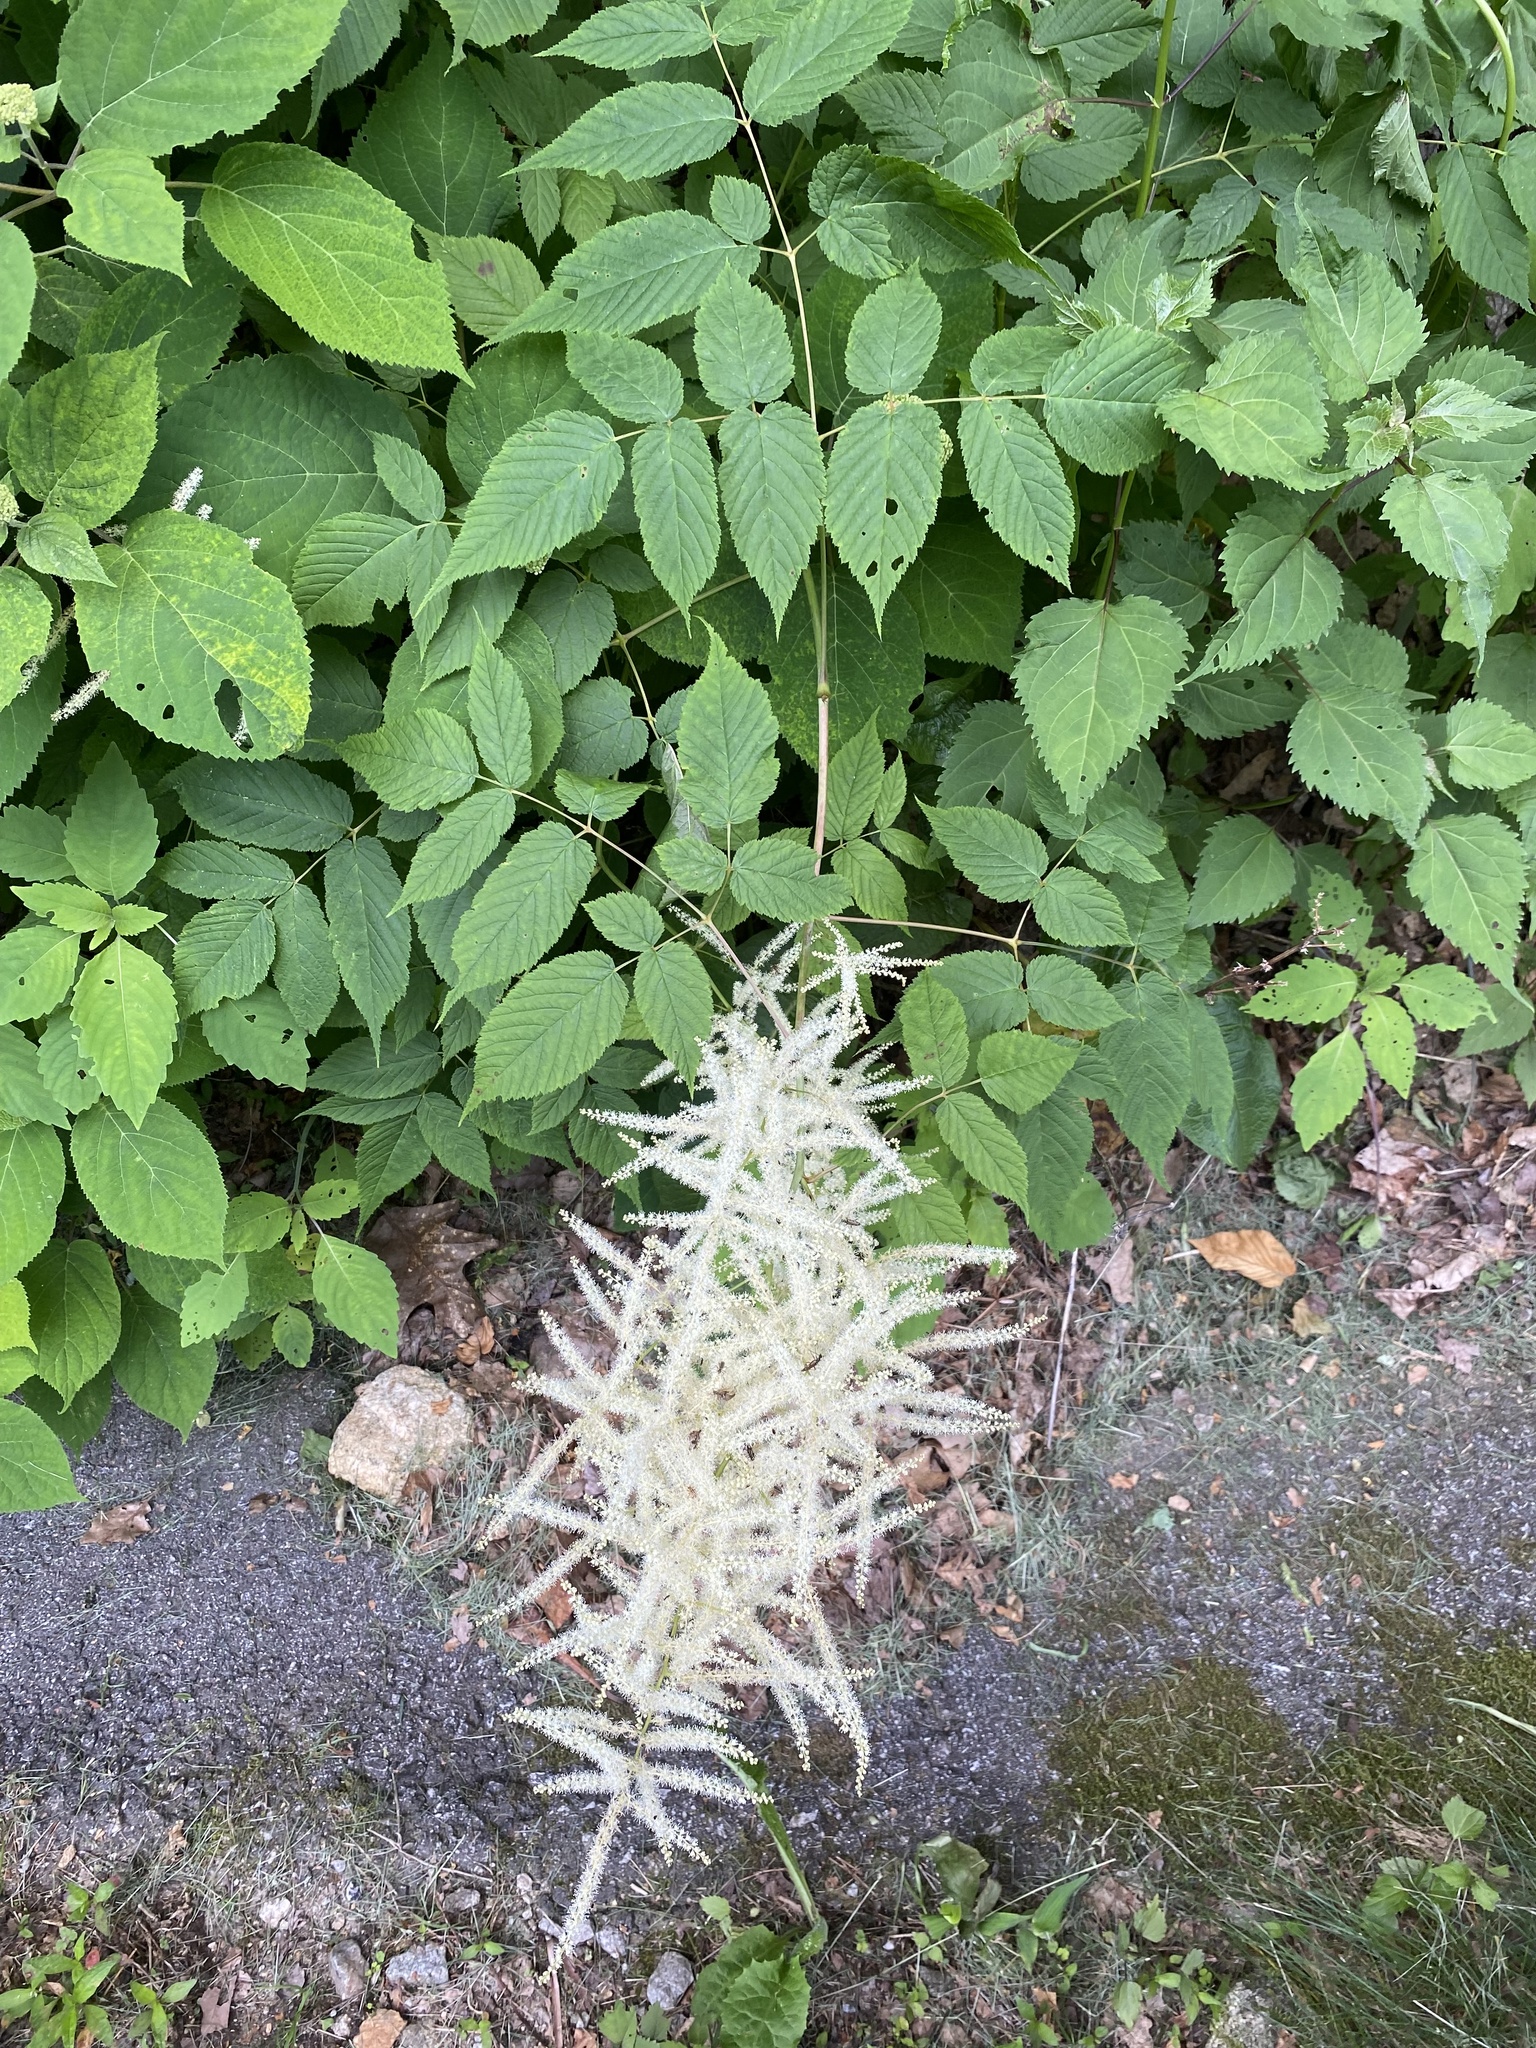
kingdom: Plantae
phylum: Tracheophyta
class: Magnoliopsida
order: Rosales
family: Rosaceae
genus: Aruncus
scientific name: Aruncus dioicus
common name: Buck's-beard
